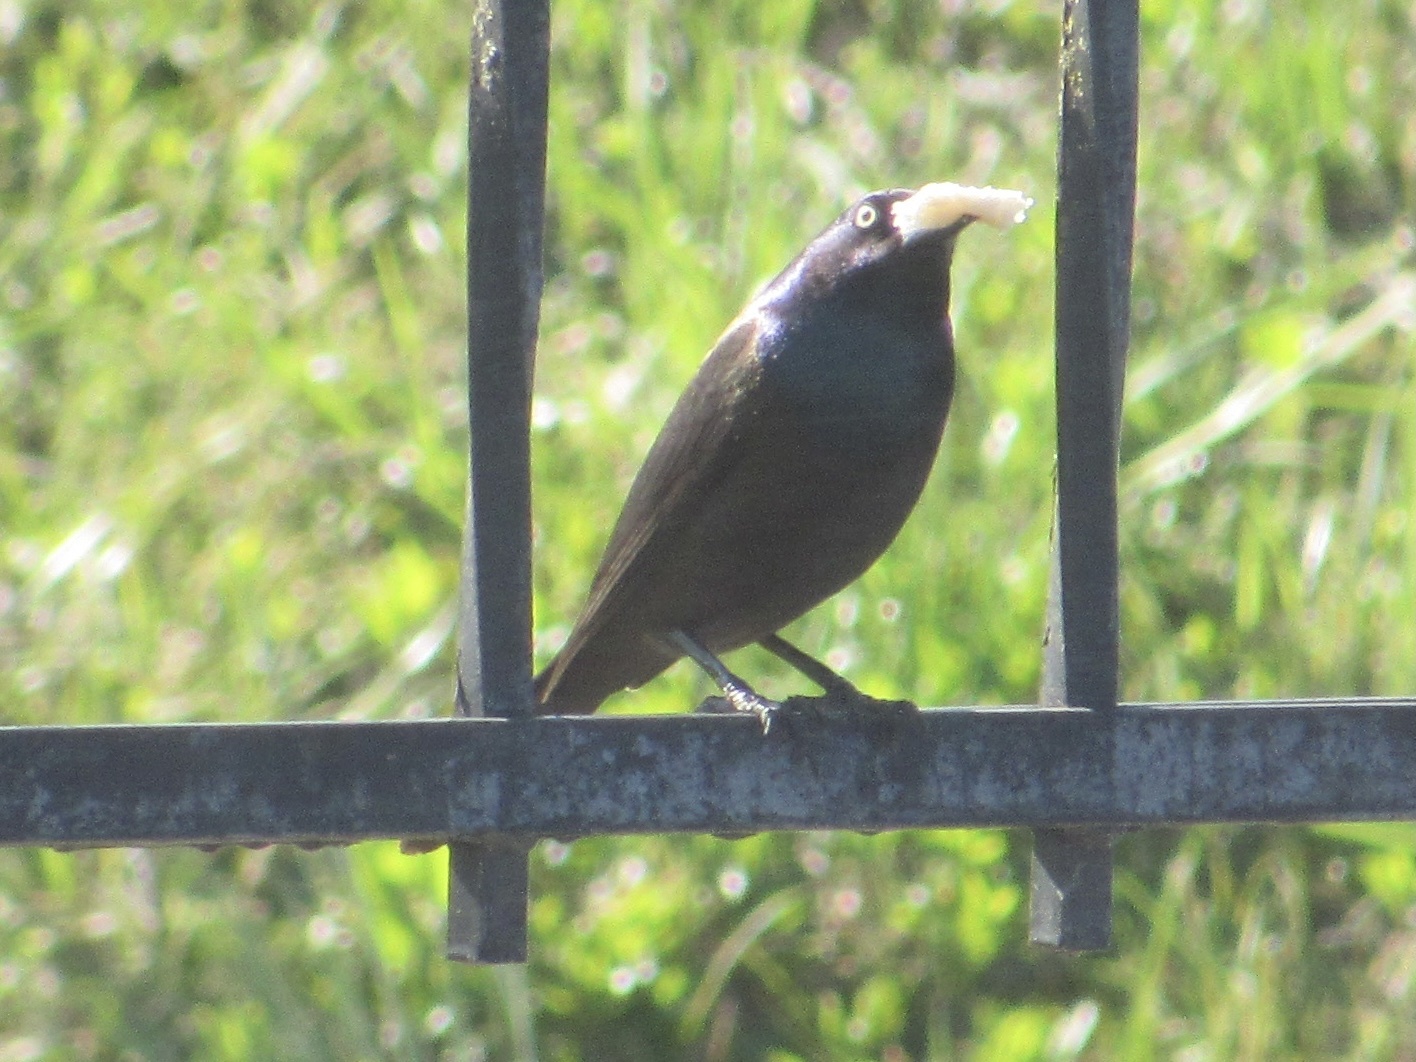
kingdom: Animalia
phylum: Chordata
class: Aves
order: Passeriformes
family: Icteridae
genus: Quiscalus
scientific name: Quiscalus quiscula
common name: Common grackle
